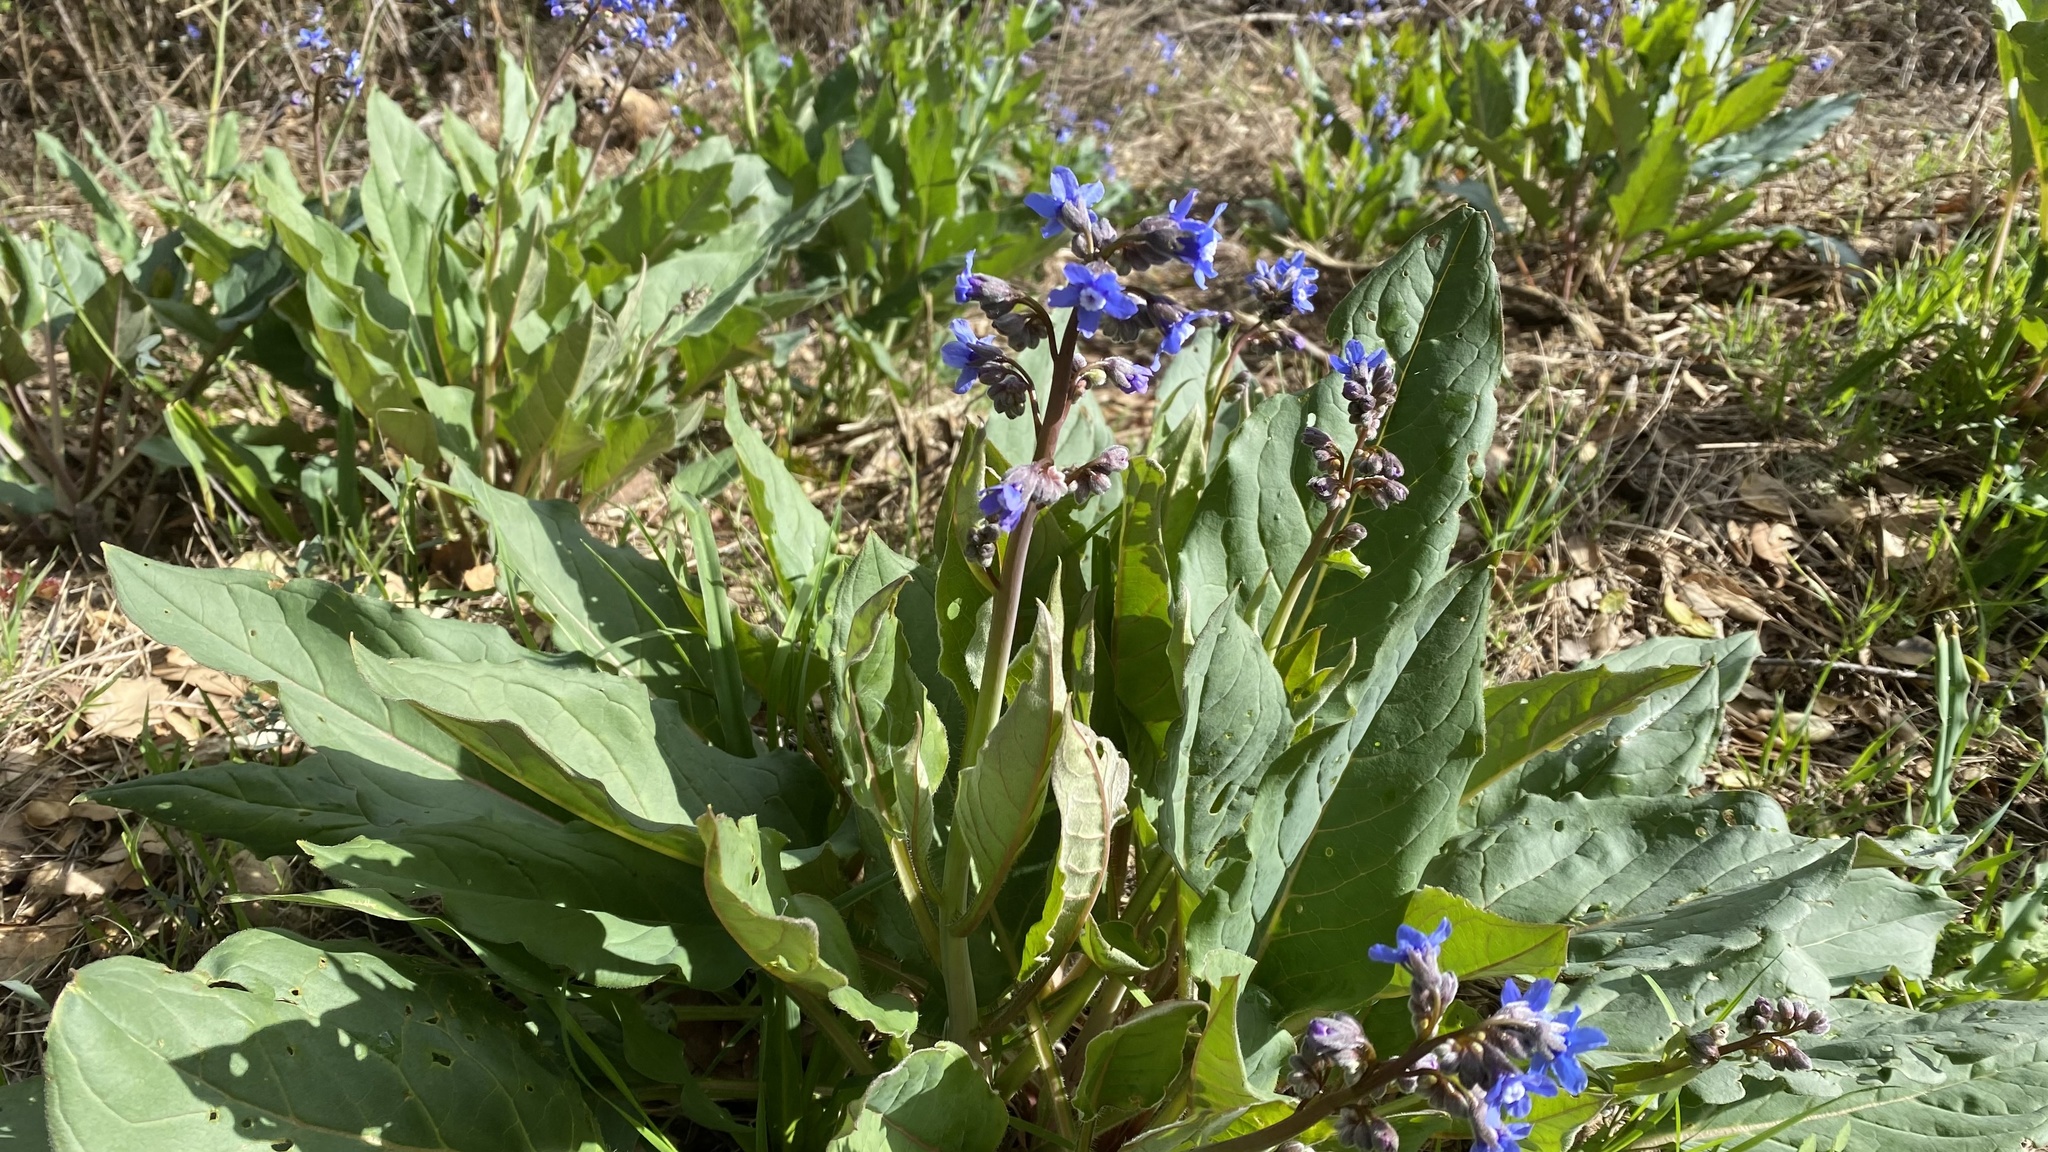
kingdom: Plantae
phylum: Tracheophyta
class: Magnoliopsida
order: Boraginales
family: Boraginaceae
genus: Adelinia
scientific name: Adelinia grande
